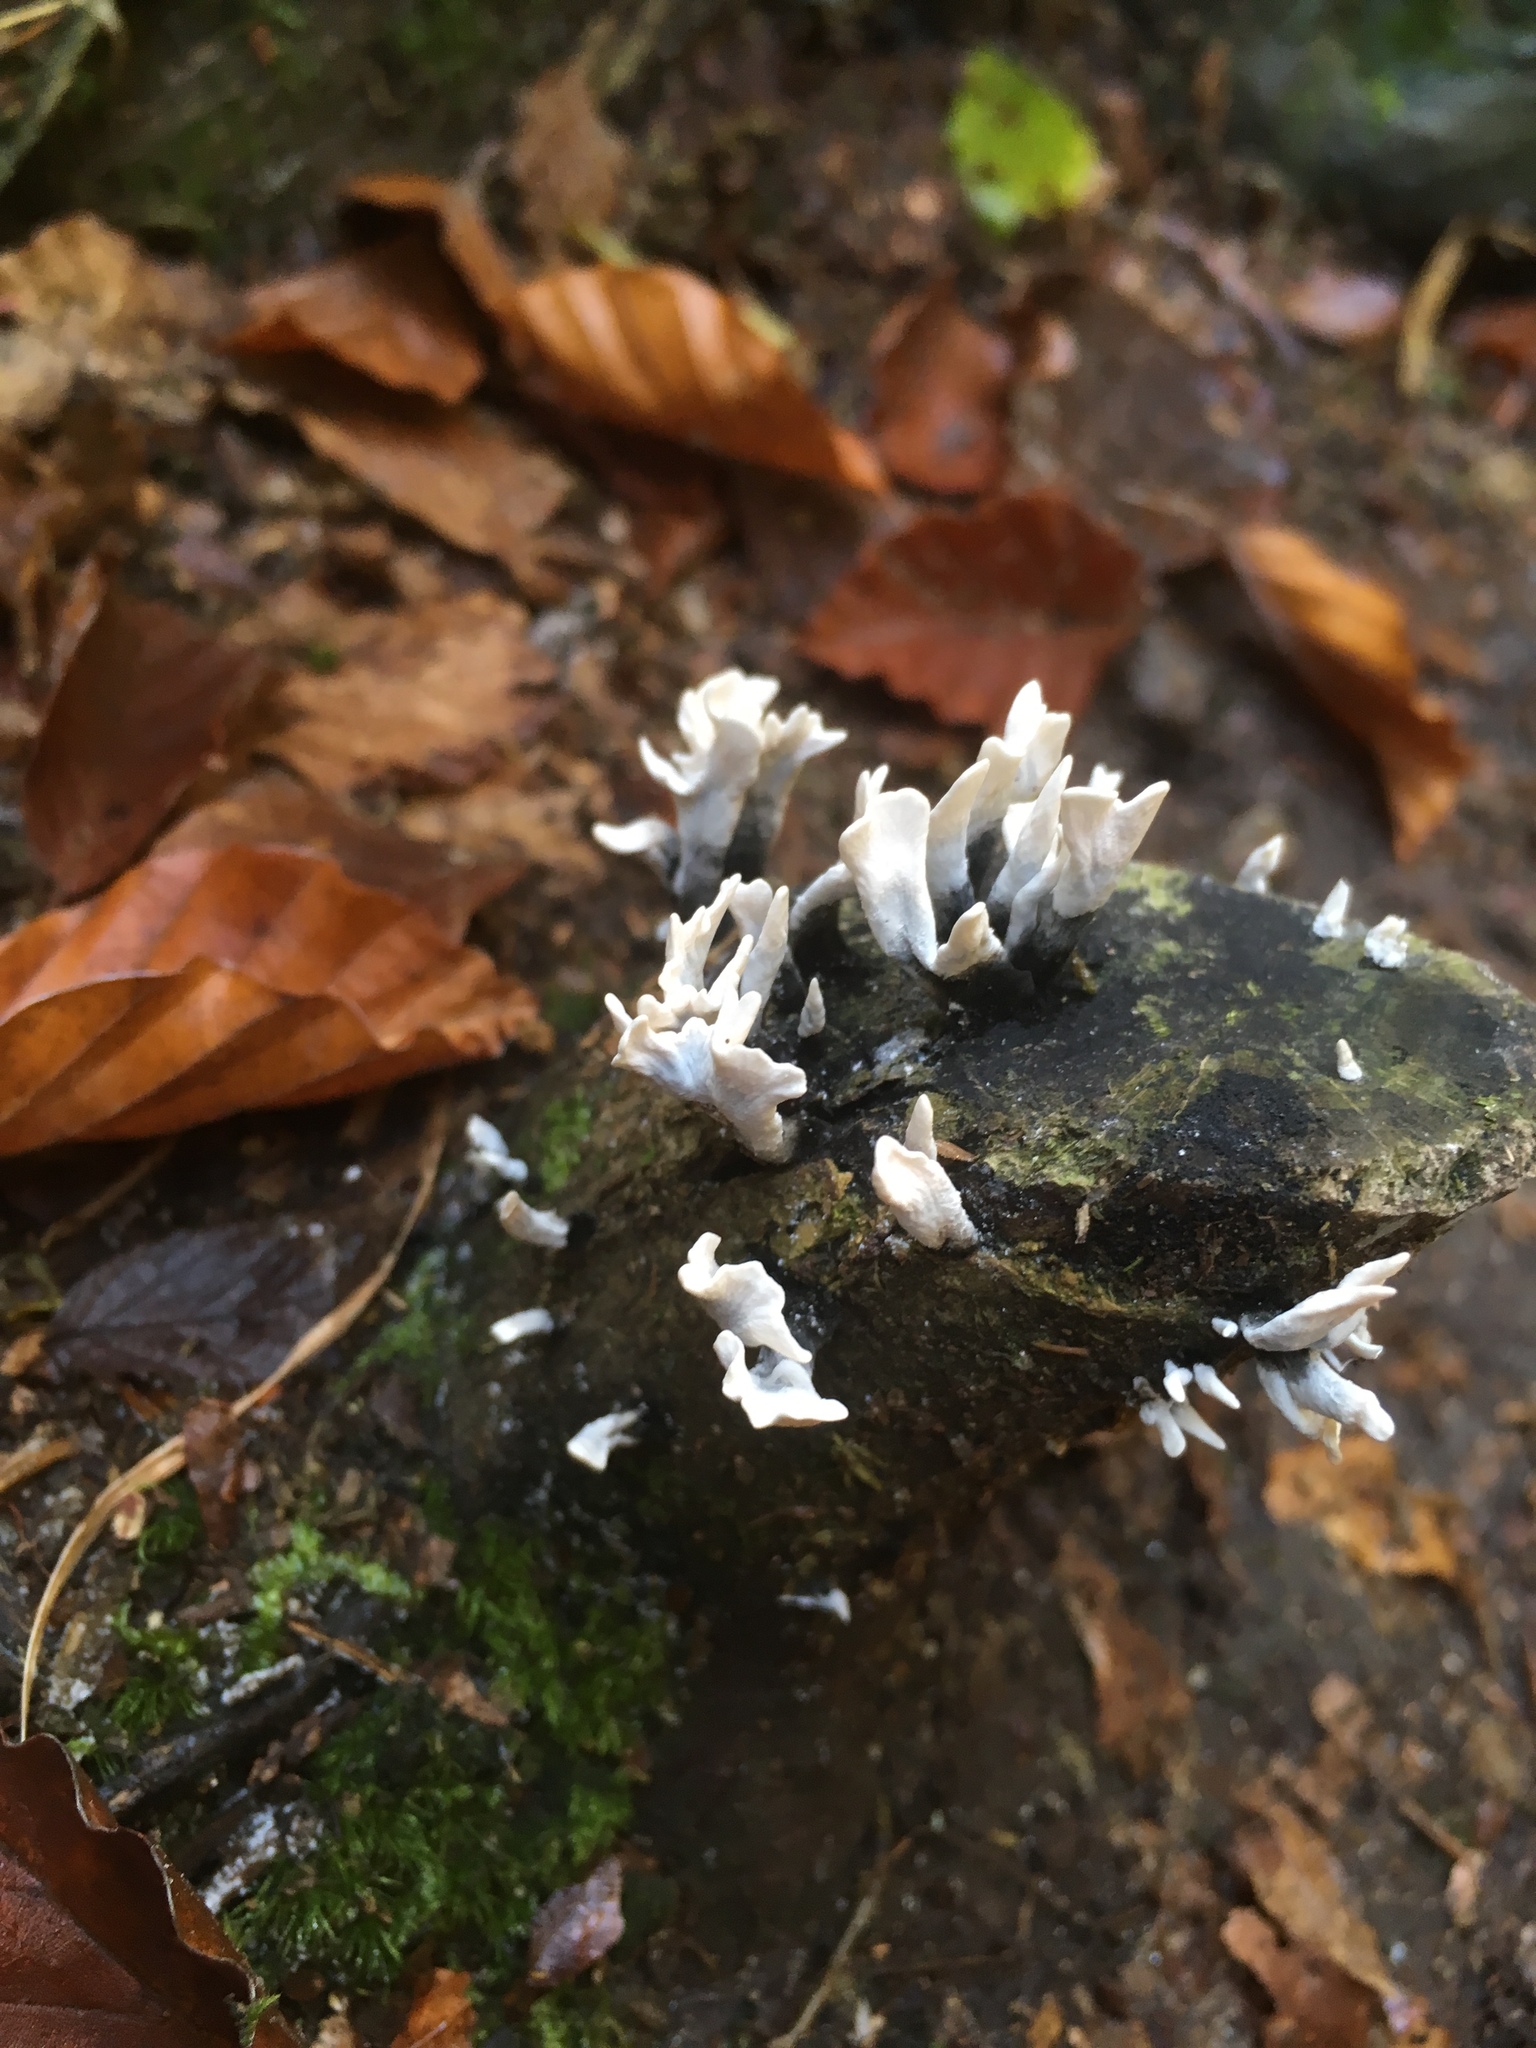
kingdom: Fungi
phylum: Ascomycota
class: Sordariomycetes
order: Xylariales
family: Xylariaceae
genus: Xylaria
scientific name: Xylaria hypoxylon
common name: Candle-snuff fungus
